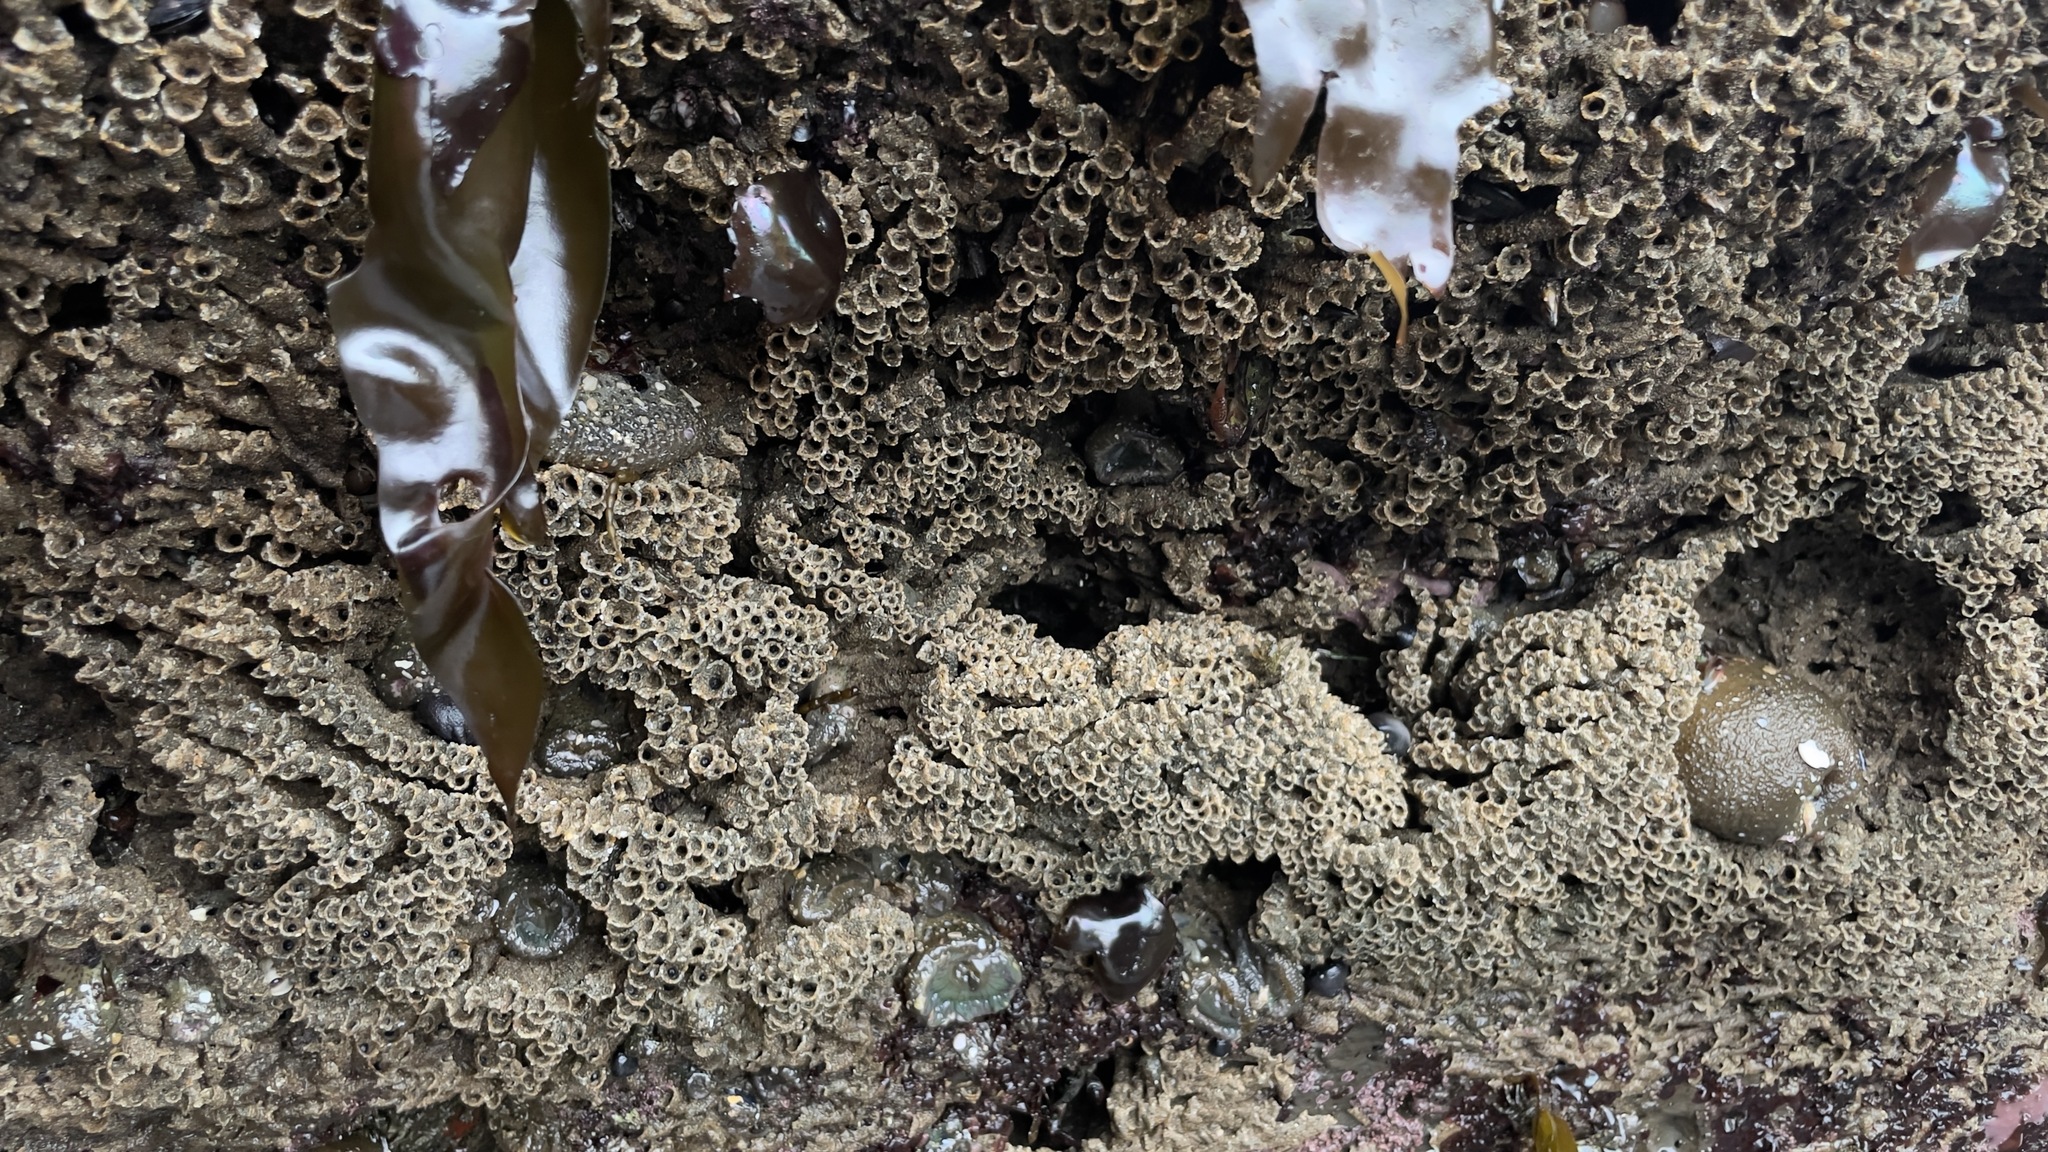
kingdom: Animalia
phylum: Annelida
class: Polychaeta
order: Sabellida
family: Sabellariidae
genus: Phragmatopoma
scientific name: Phragmatopoma californica
